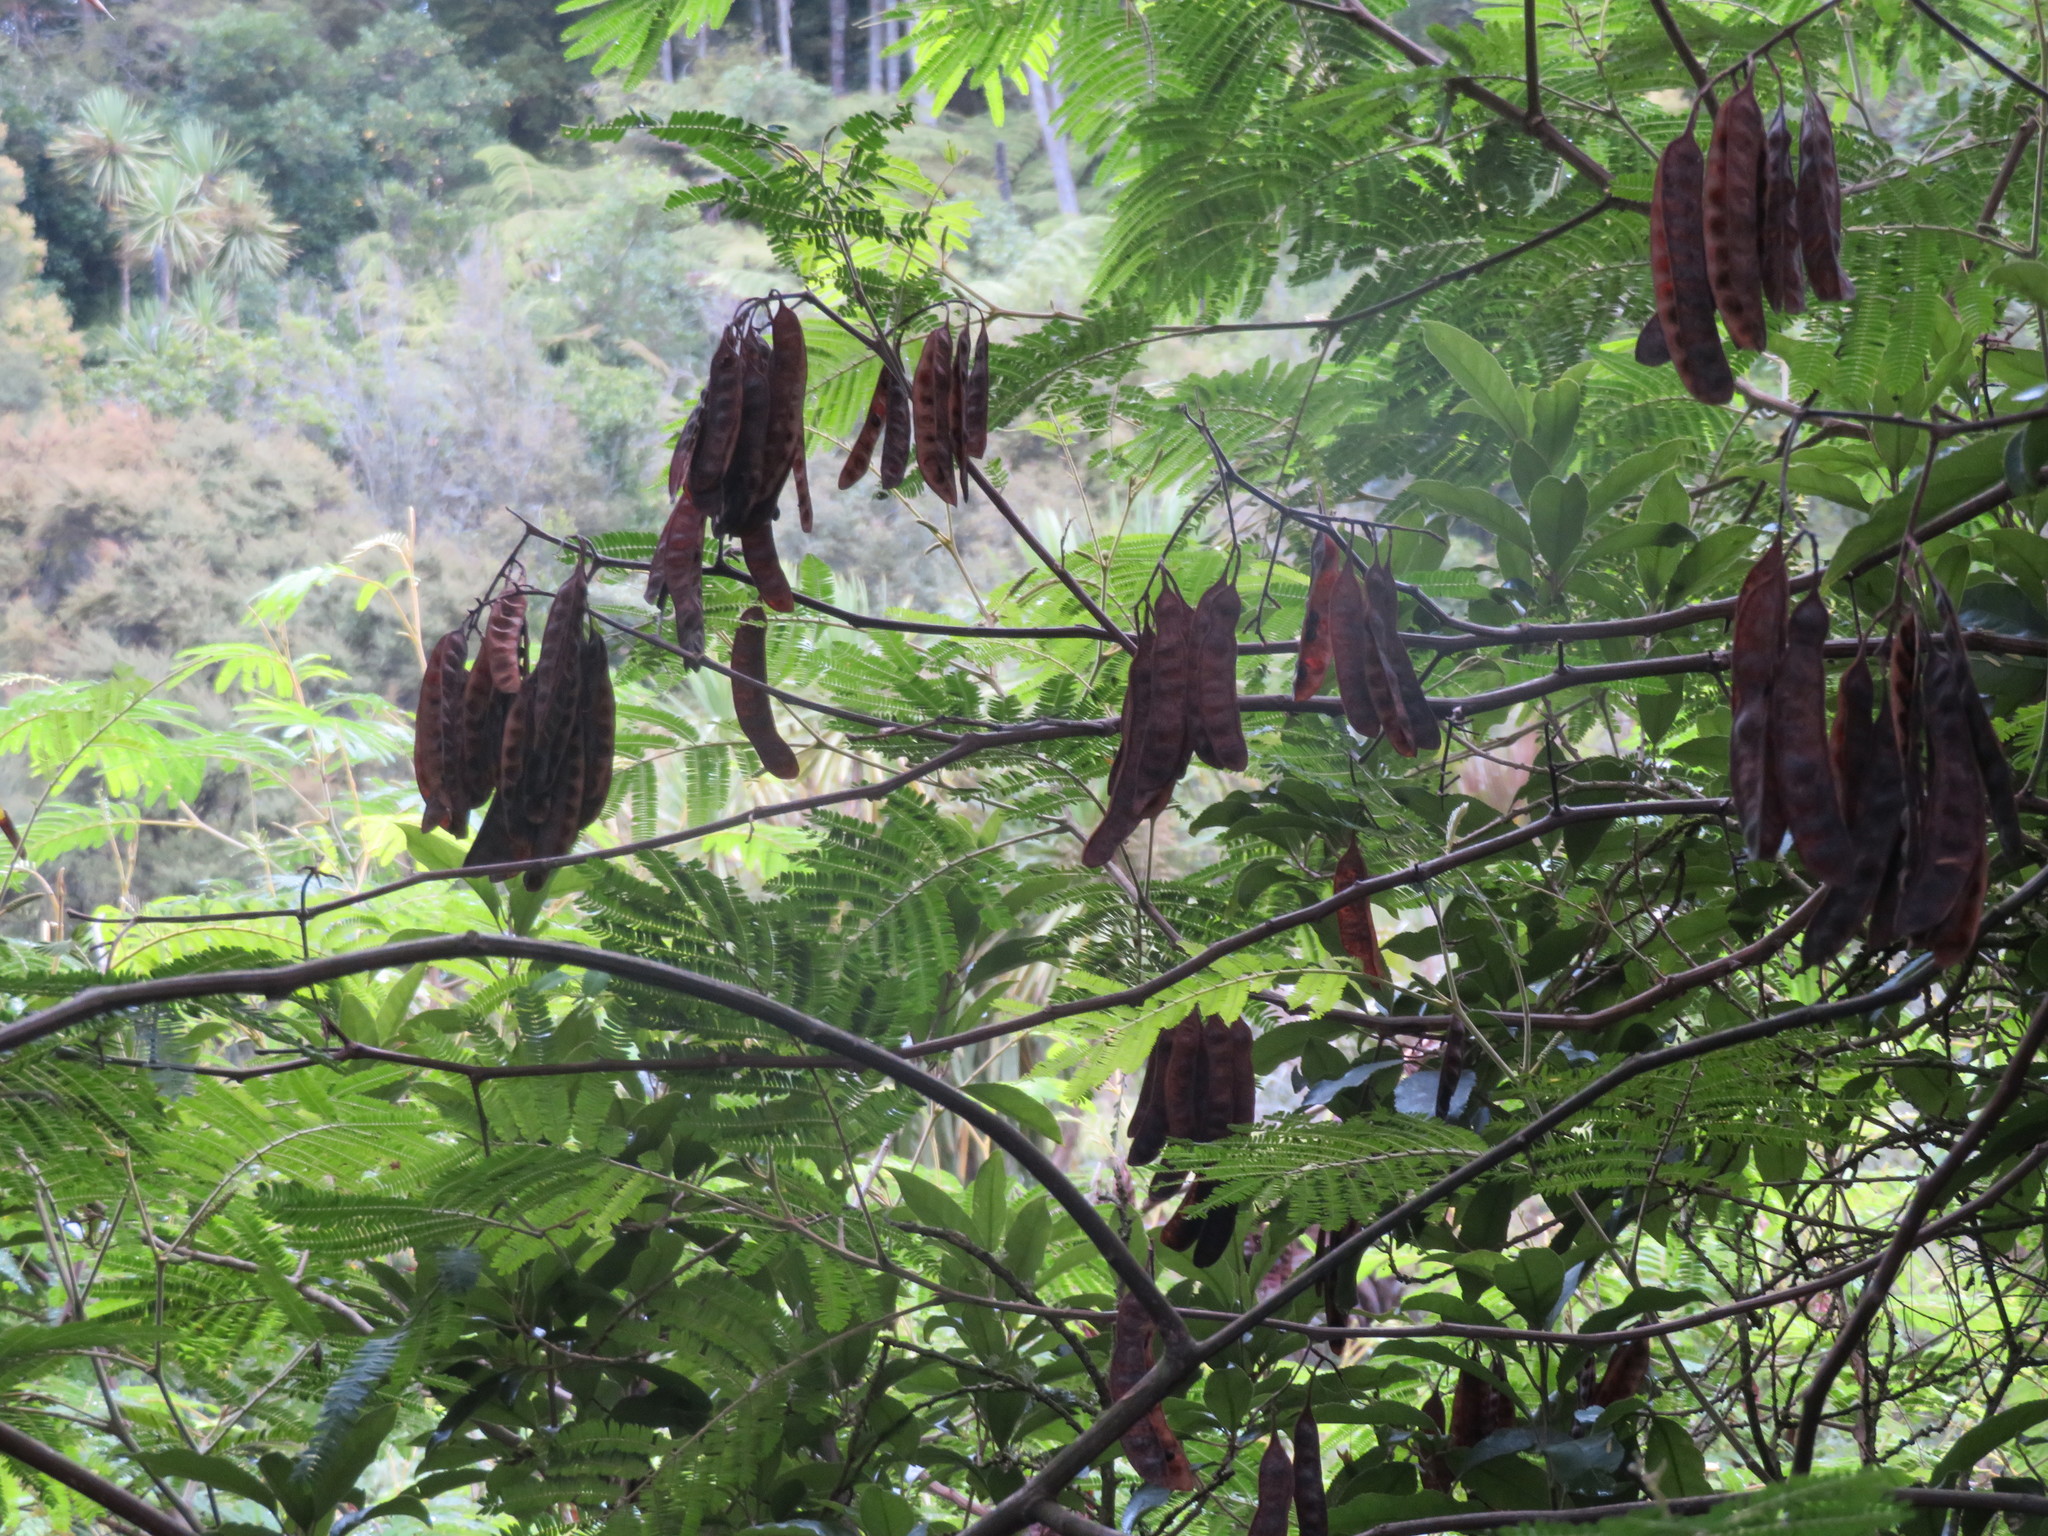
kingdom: Plantae
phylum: Tracheophyta
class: Magnoliopsida
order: Fabales
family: Fabaceae
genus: Paraserianthes
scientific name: Paraserianthes lophantha
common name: Plume albizia
